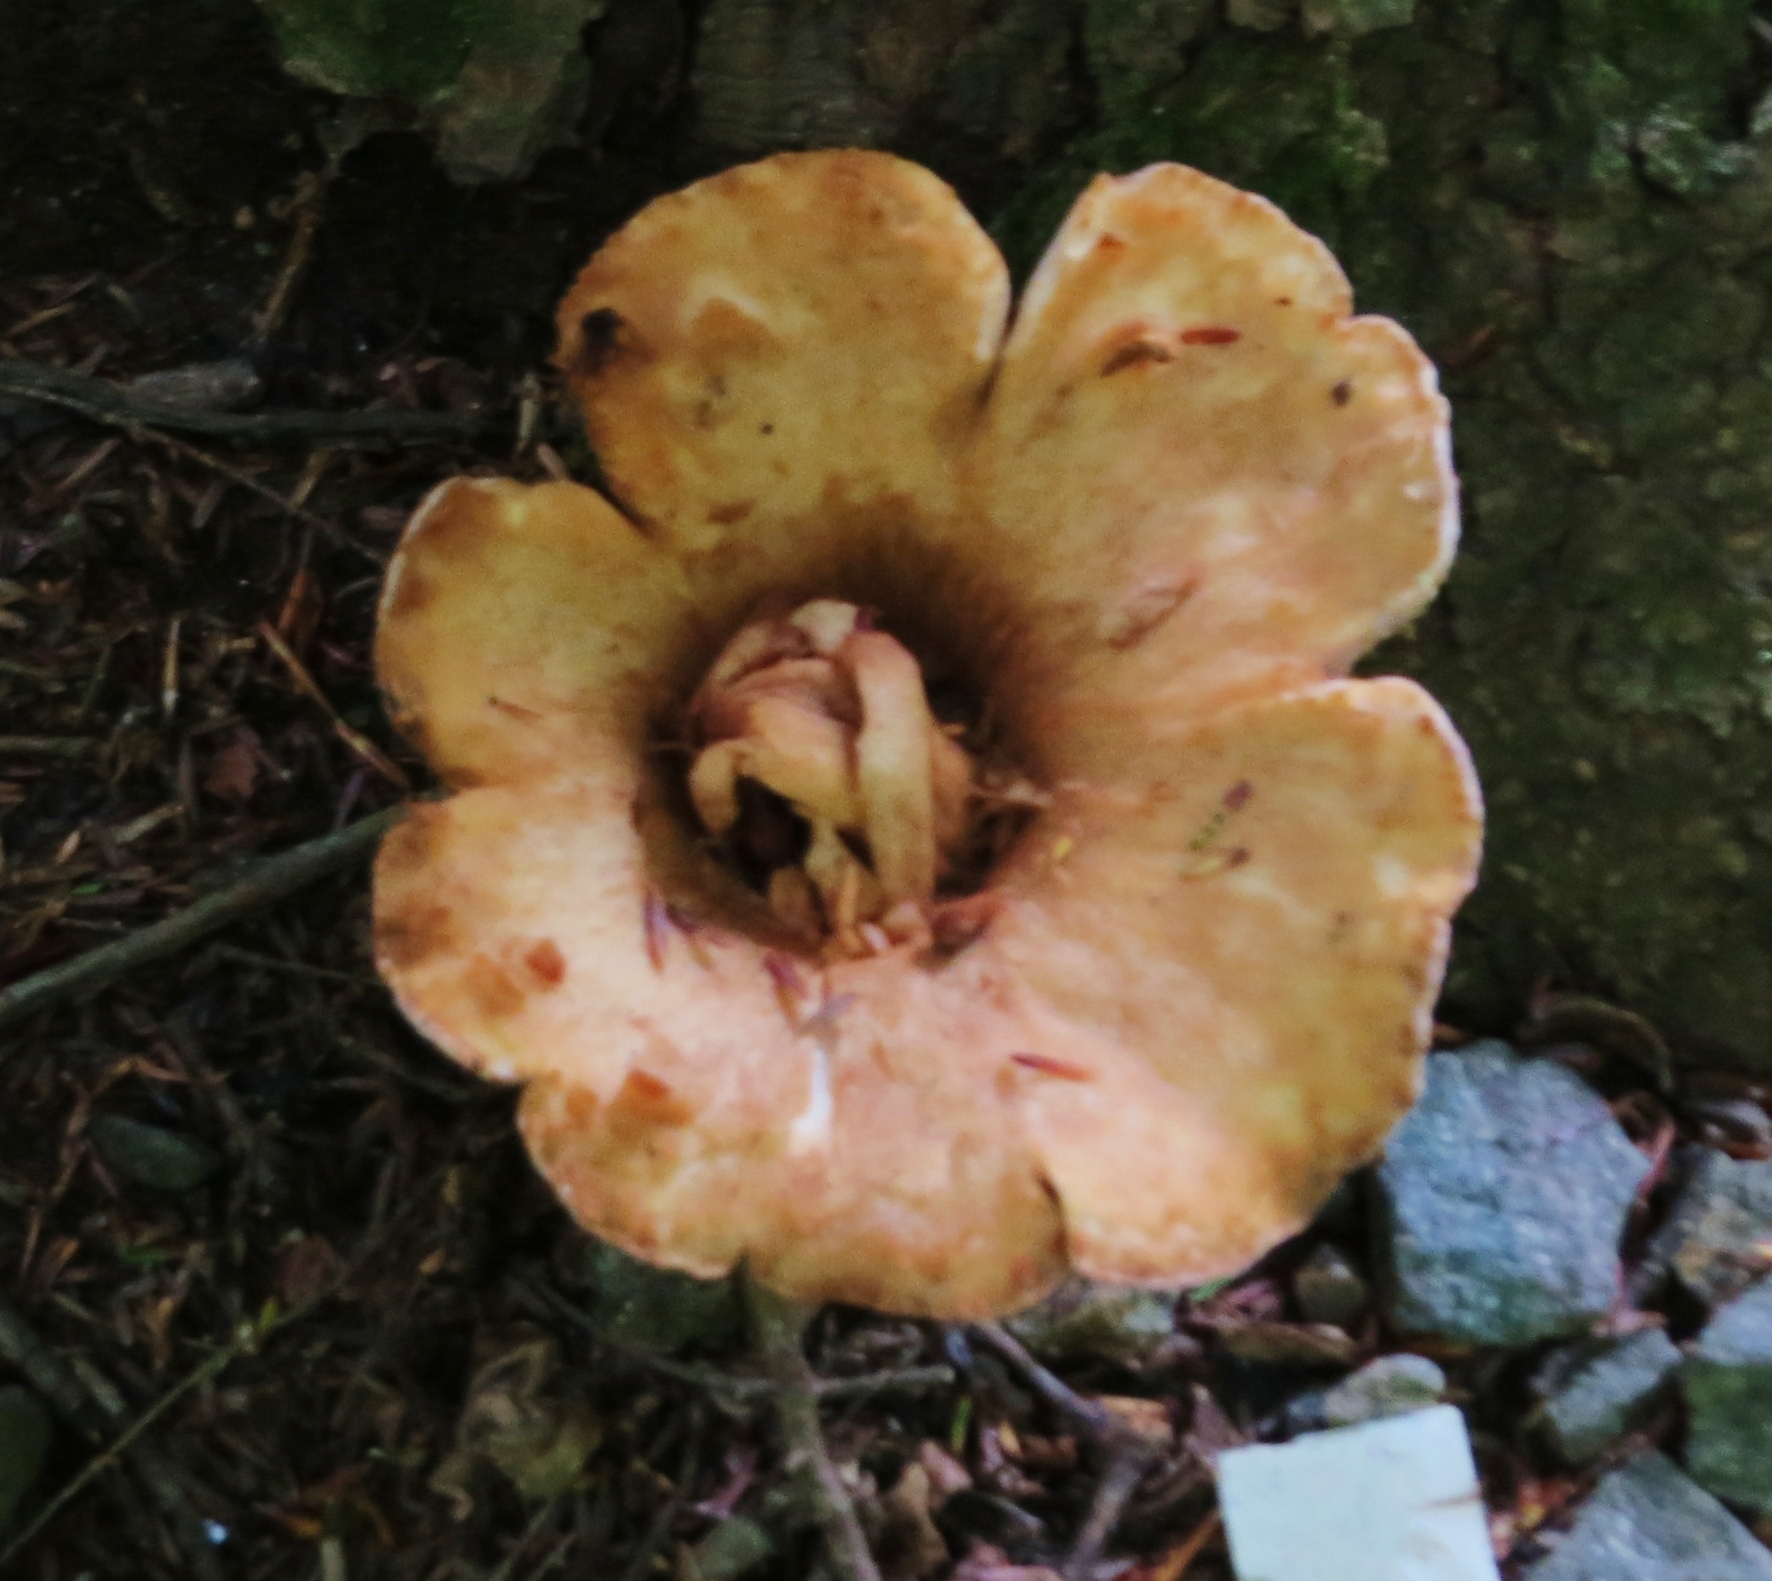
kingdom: Fungi
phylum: Basidiomycota
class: Agaricomycetes
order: Gomphales
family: Gomphaceae
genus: Turbinellus
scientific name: Turbinellus kauffmanii
